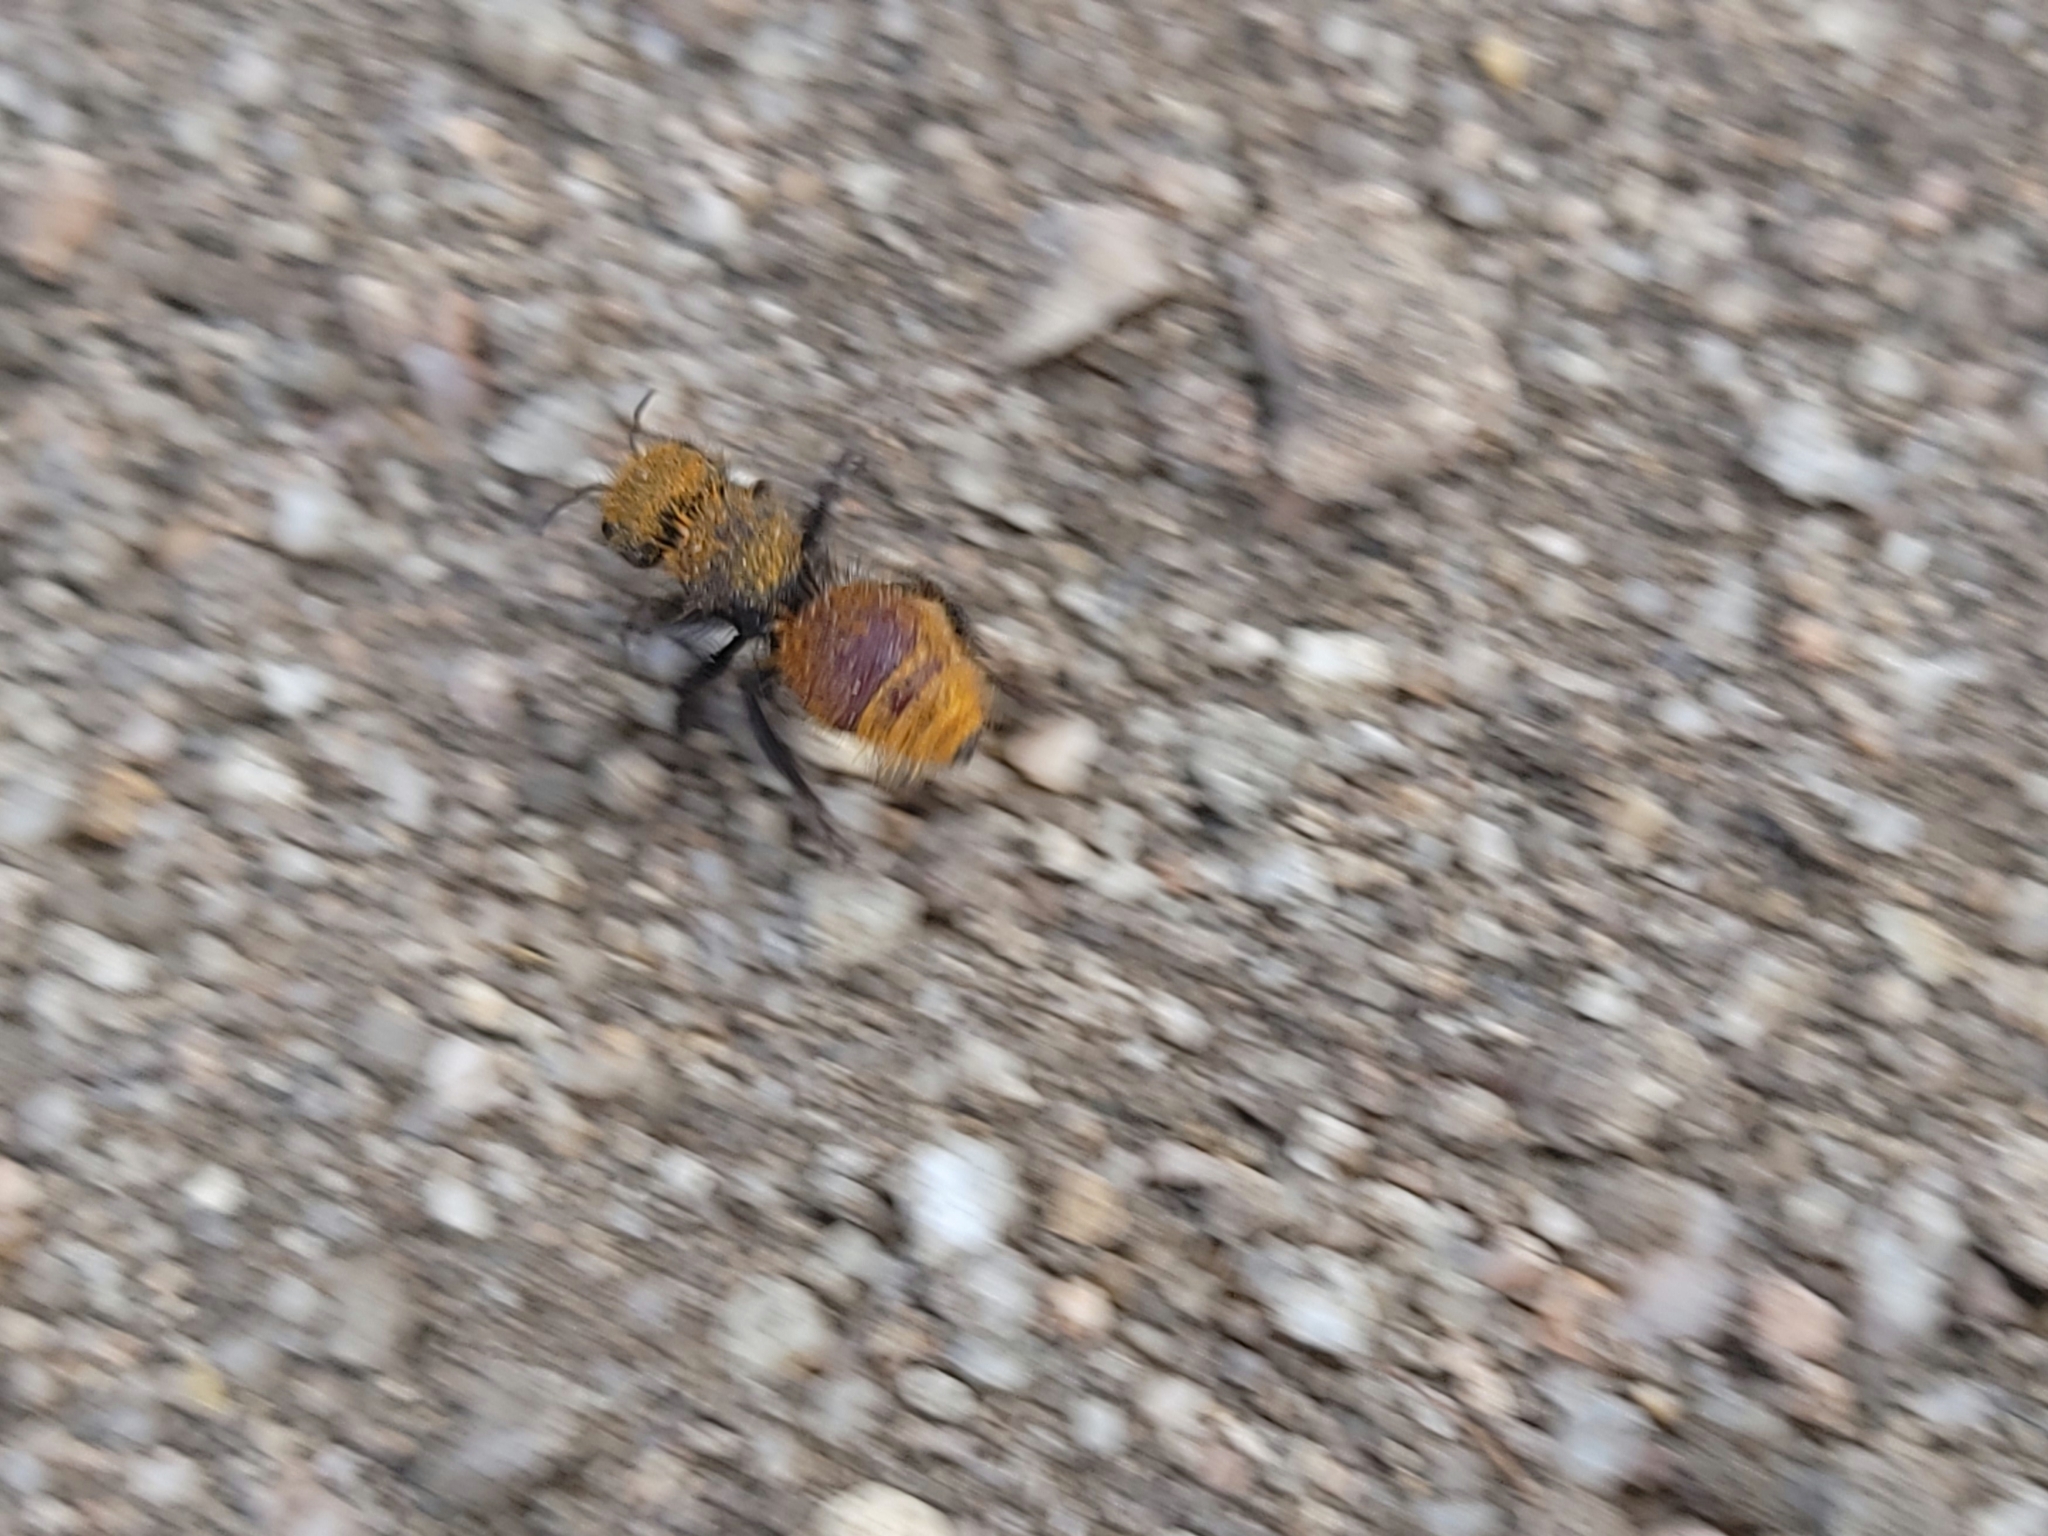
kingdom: Animalia
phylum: Arthropoda
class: Insecta
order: Hymenoptera
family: Mutillidae
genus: Dasymutilla
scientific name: Dasymutilla
